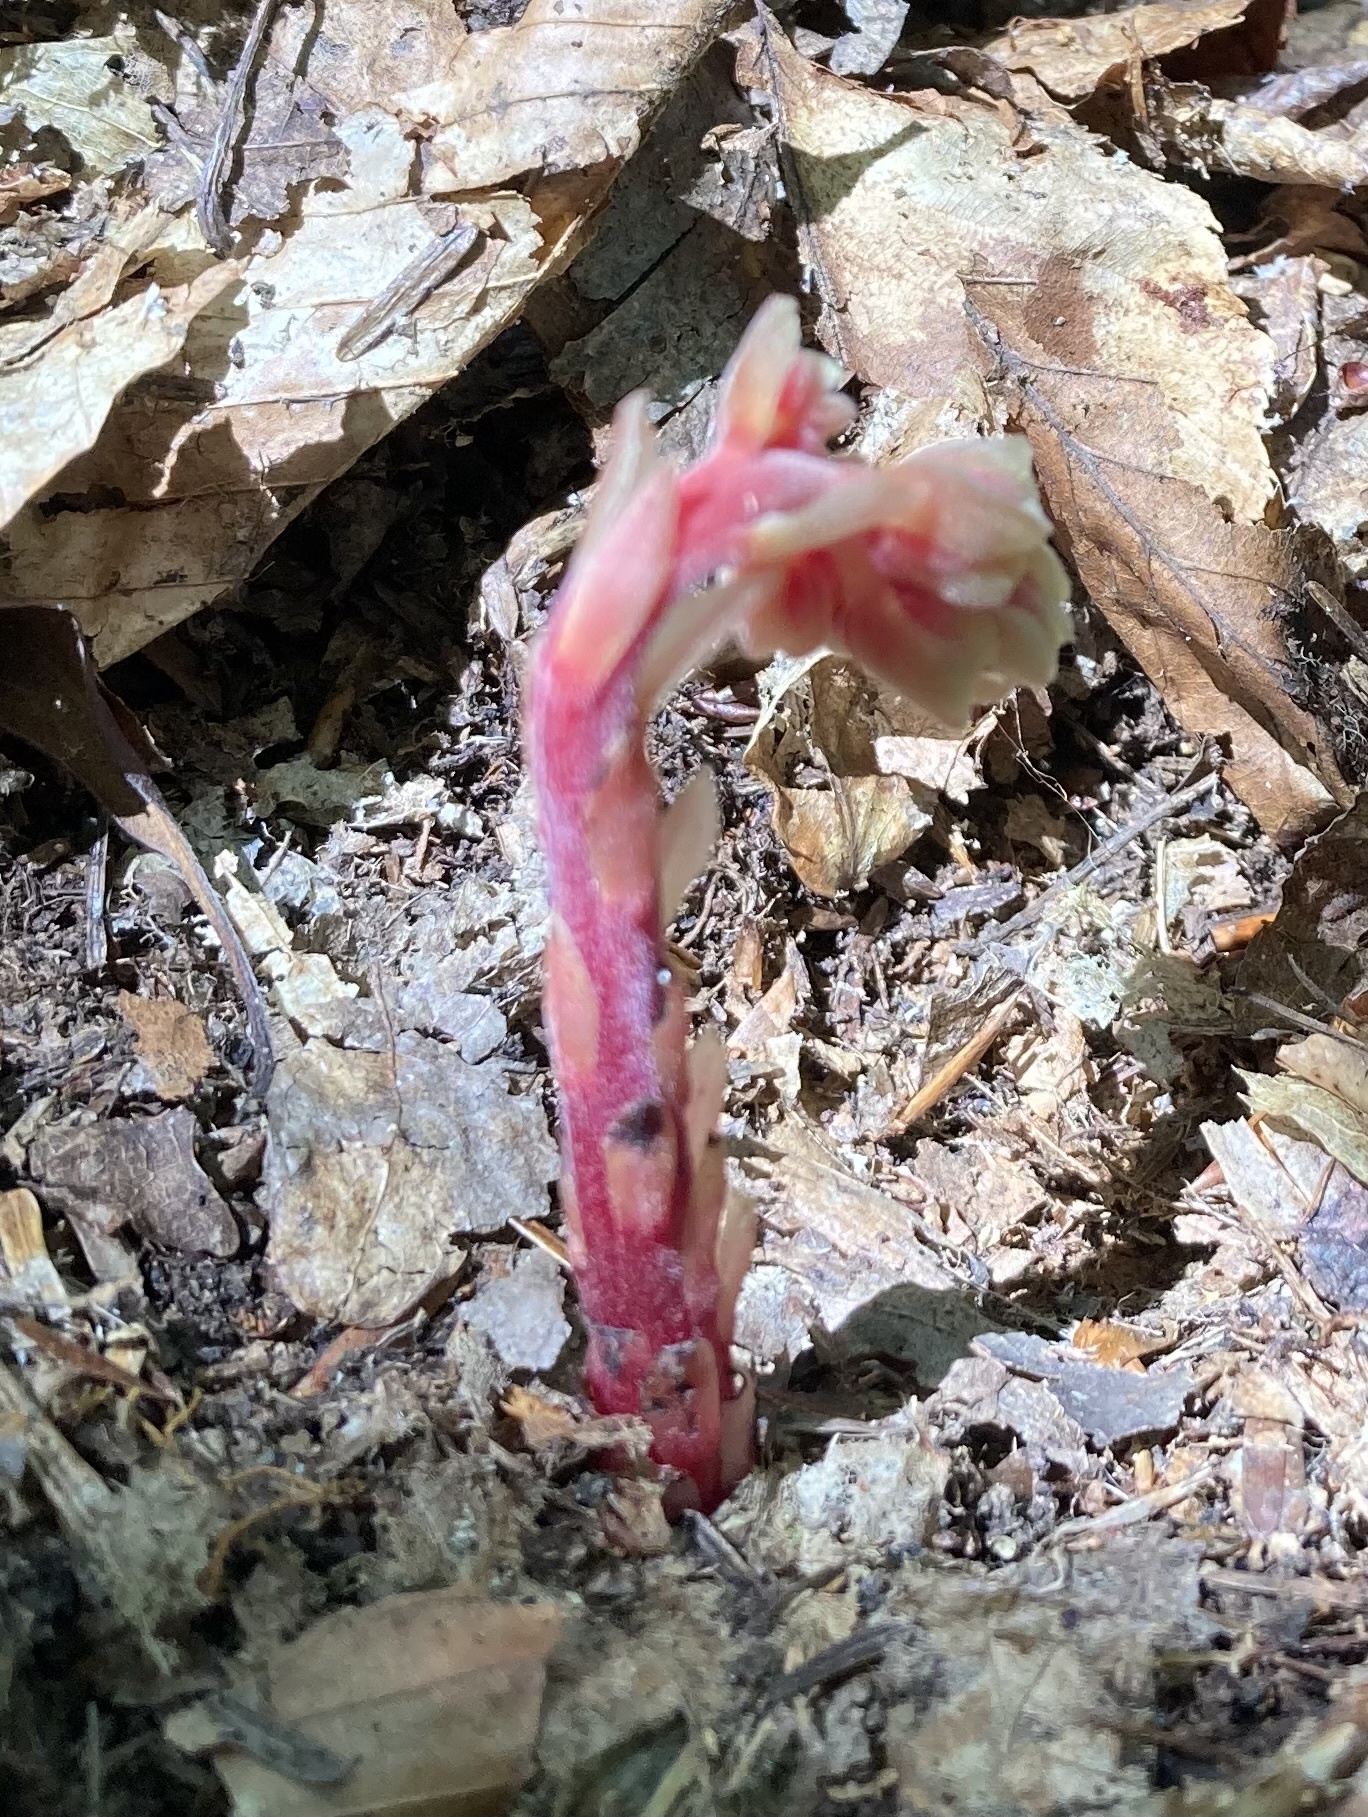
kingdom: Plantae
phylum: Tracheophyta
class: Magnoliopsida
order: Ericales
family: Ericaceae
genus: Hypopitys
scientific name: Hypopitys monotropa
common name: Yellow bird's-nest
